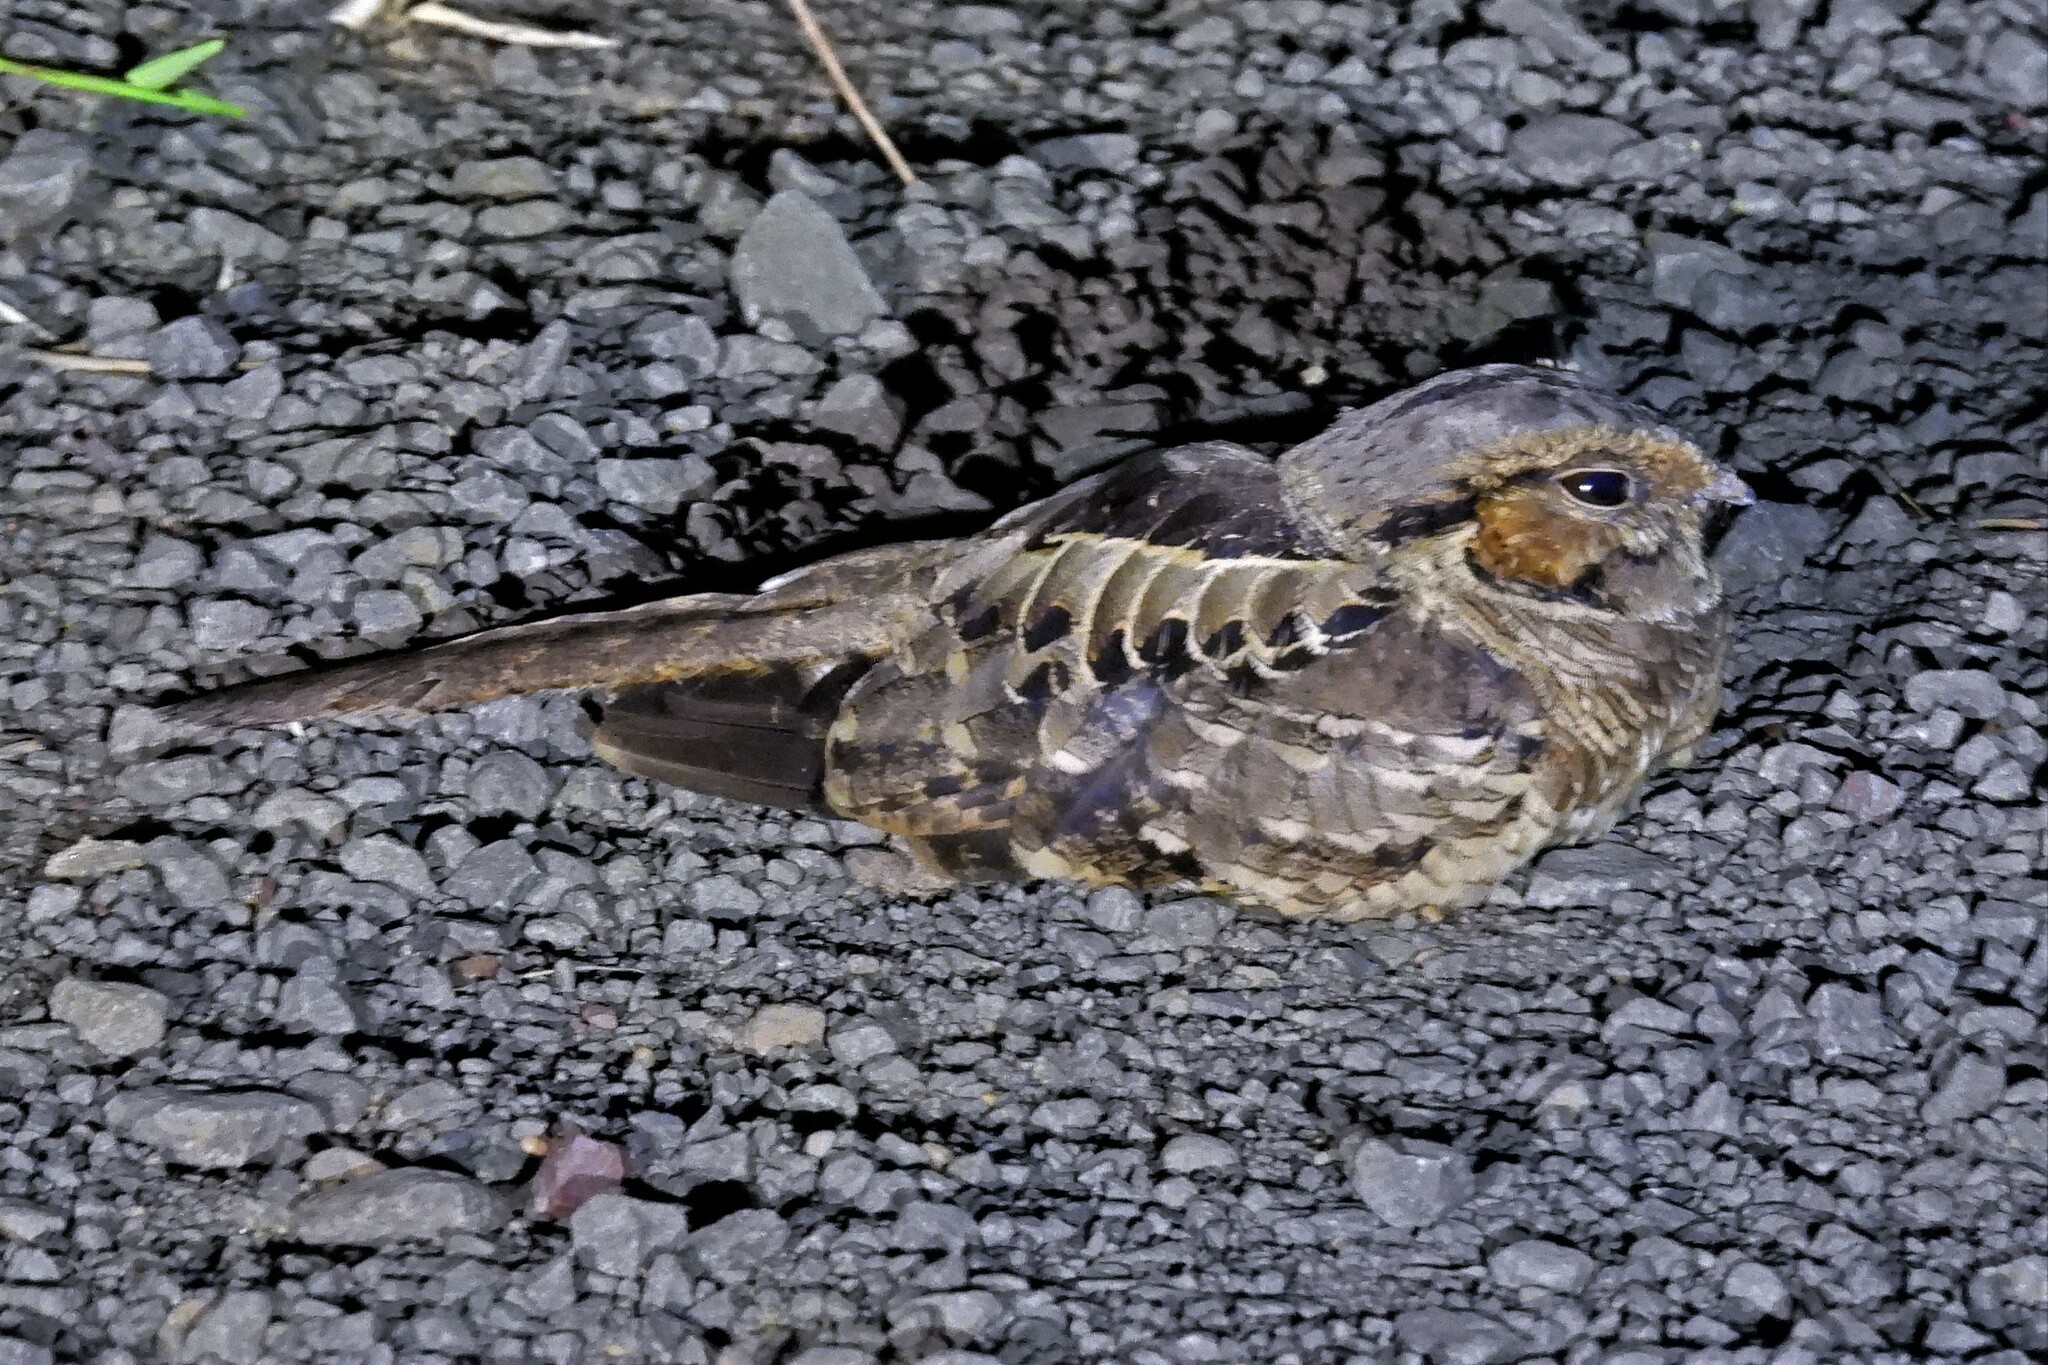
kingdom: Animalia
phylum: Chordata
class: Aves
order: Caprimulgiformes
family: Caprimulgidae
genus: Nyctidromus
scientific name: Nyctidromus albicollis
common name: Pauraque
